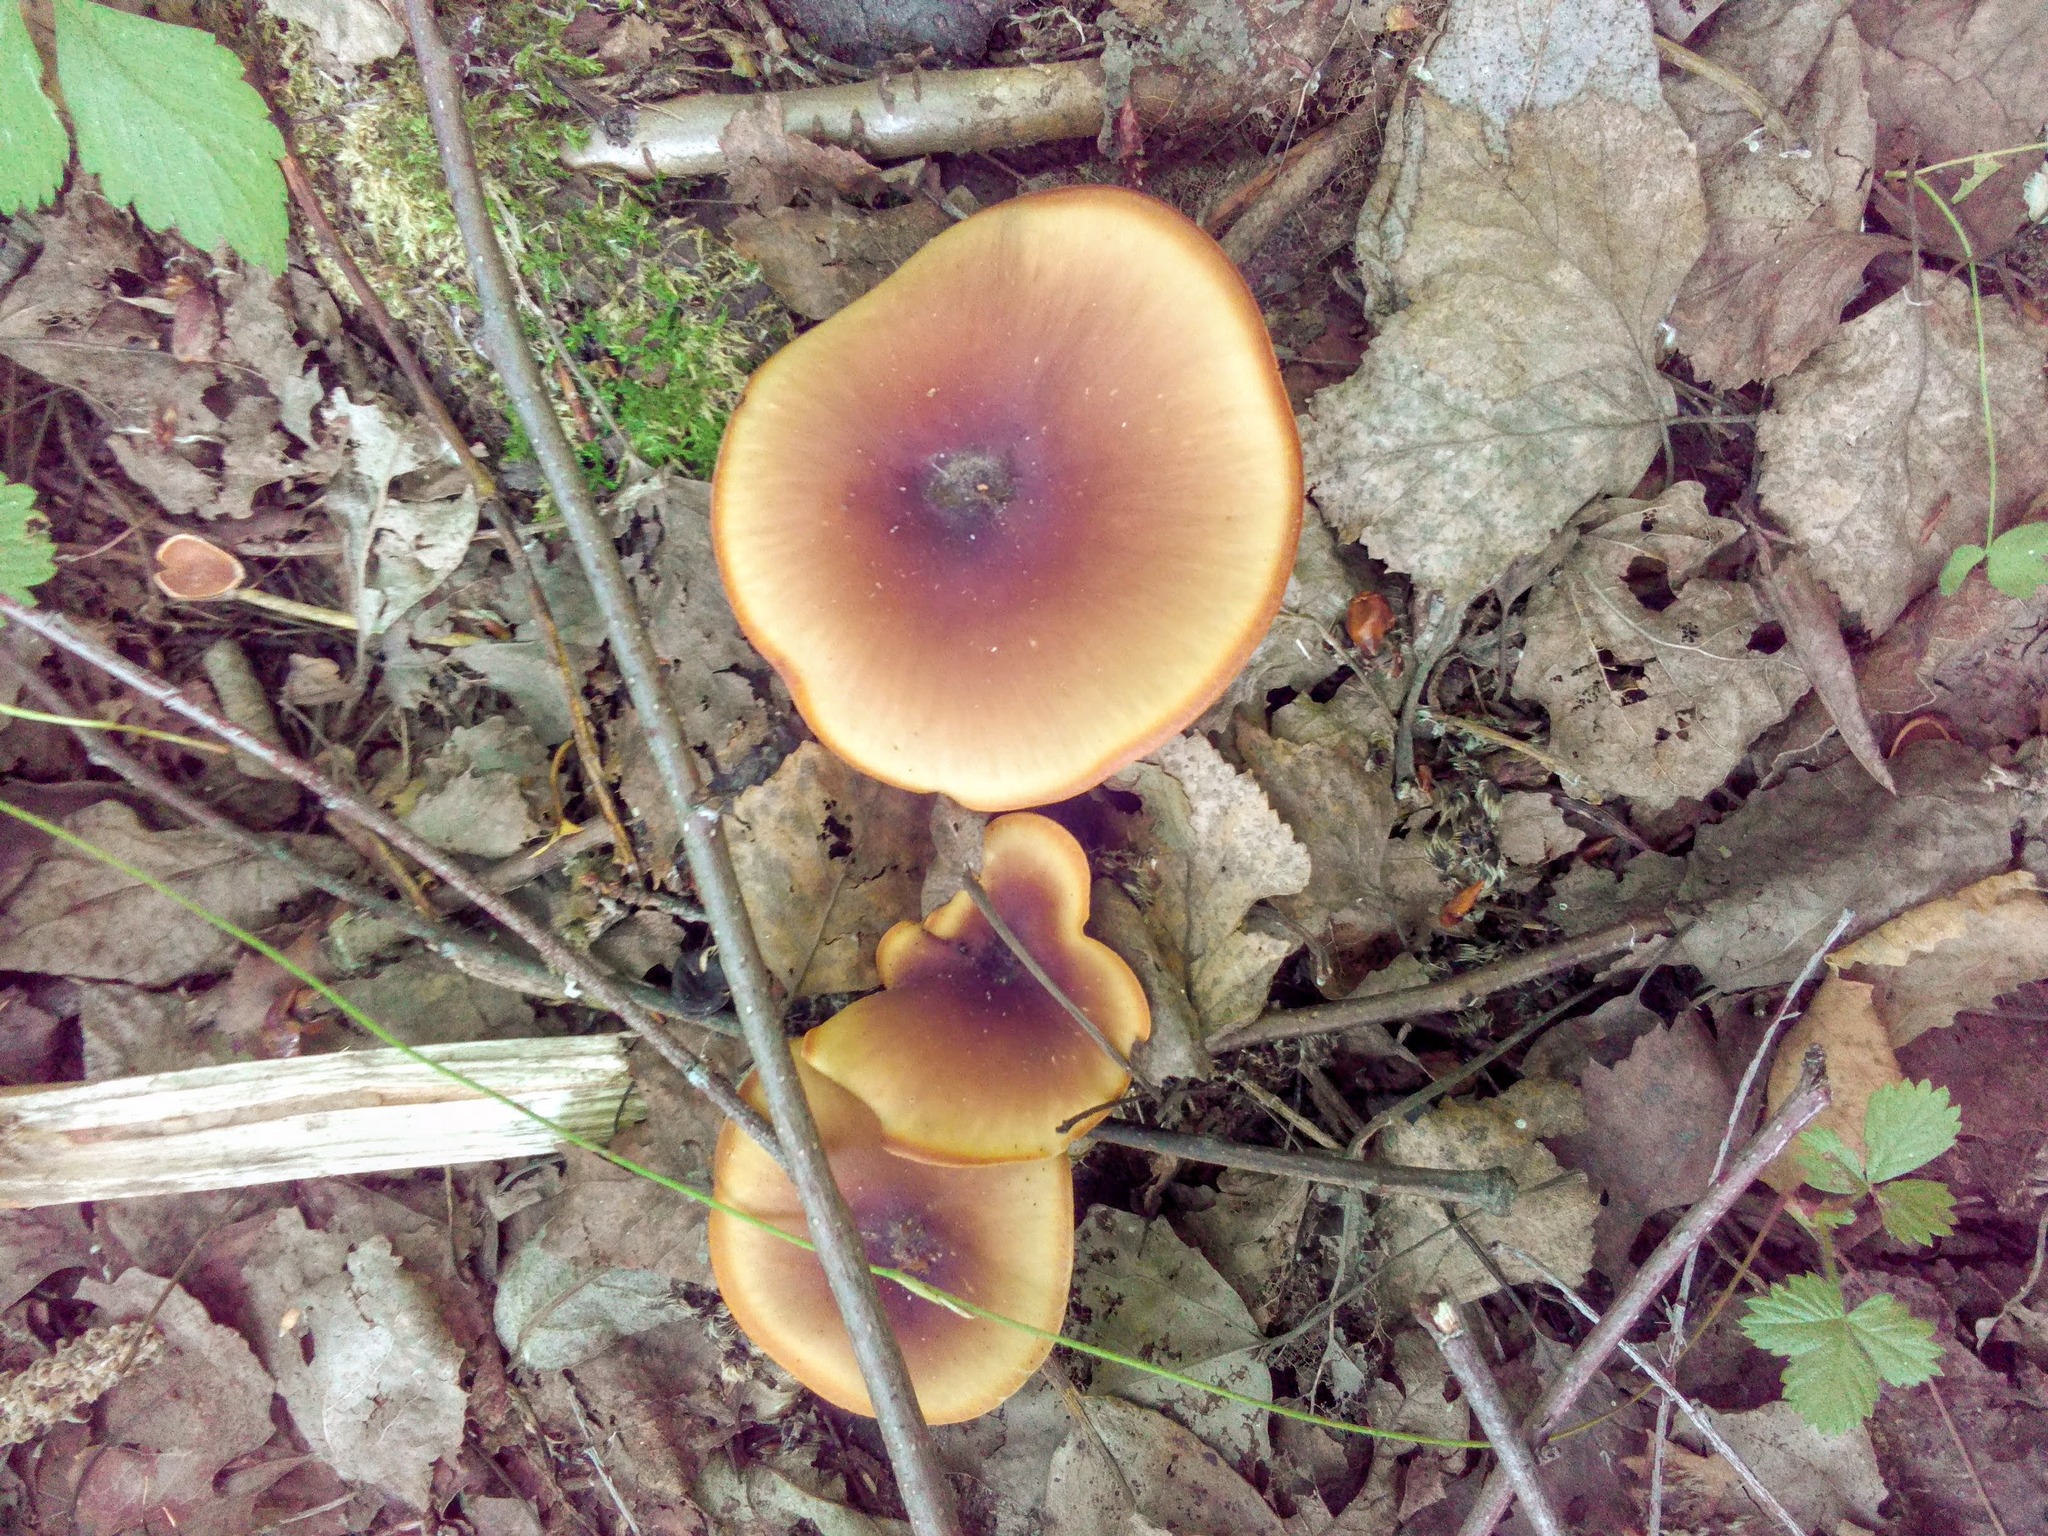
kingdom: Fungi
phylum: Basidiomycota
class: Agaricomycetes
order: Polyporales
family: Polyporaceae
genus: Picipes
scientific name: Picipes badius
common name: Bay polypore
